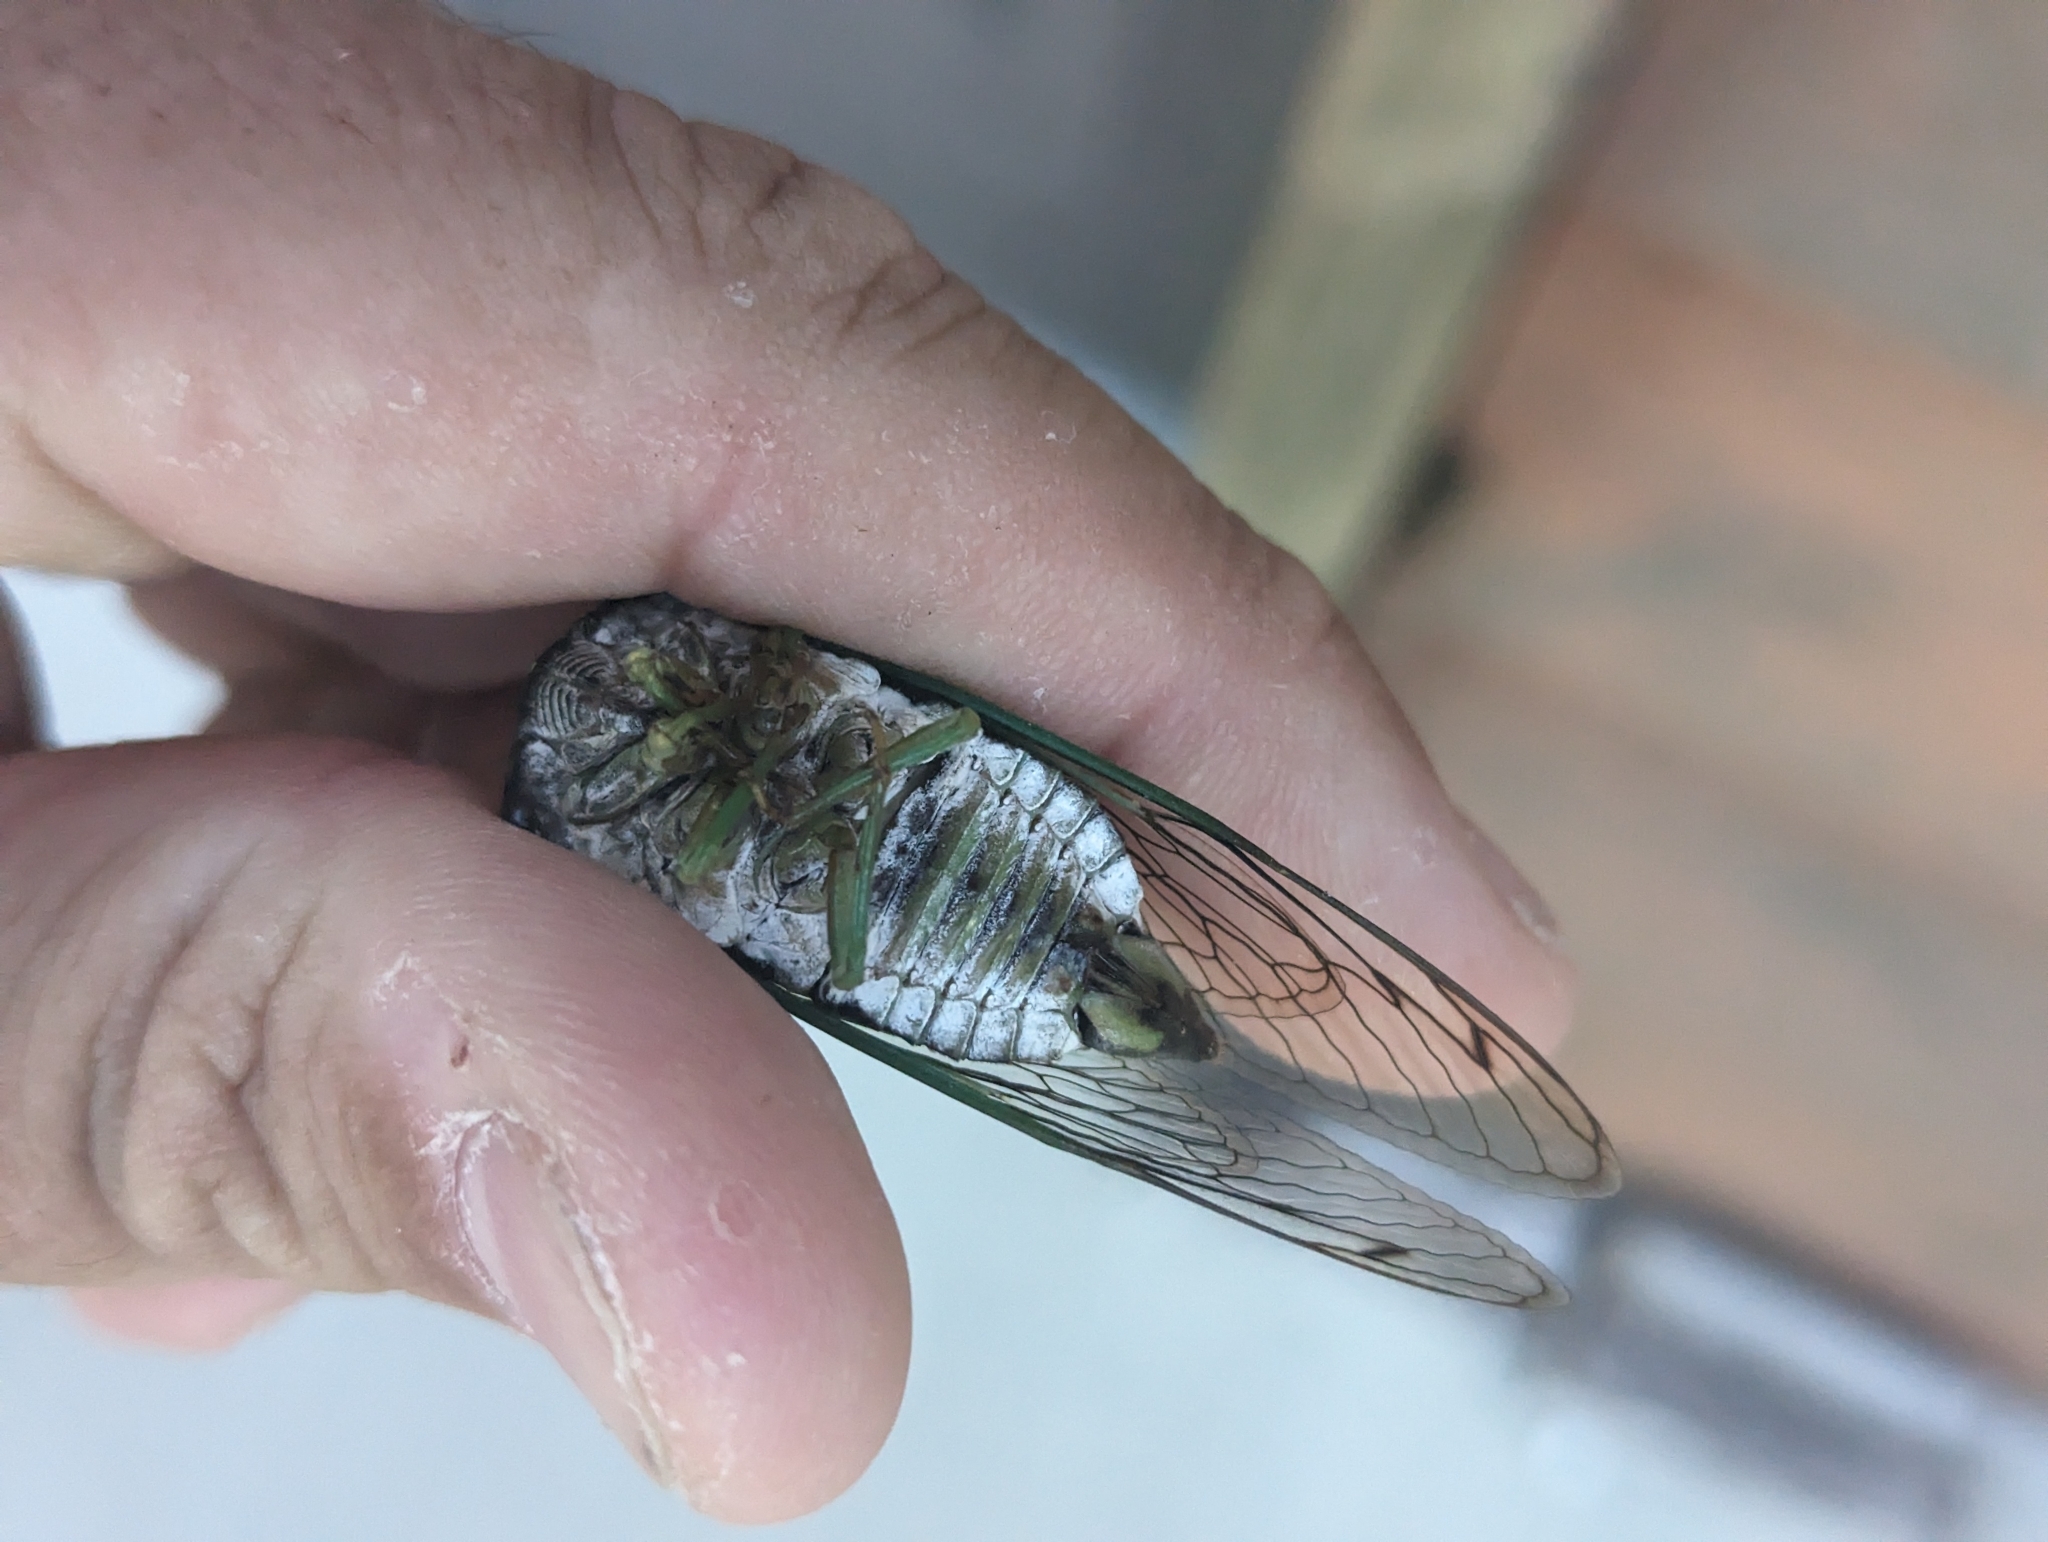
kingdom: Animalia
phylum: Arthropoda
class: Insecta
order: Hemiptera
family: Cicadidae
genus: Neotibicen
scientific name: Neotibicen tibicen
